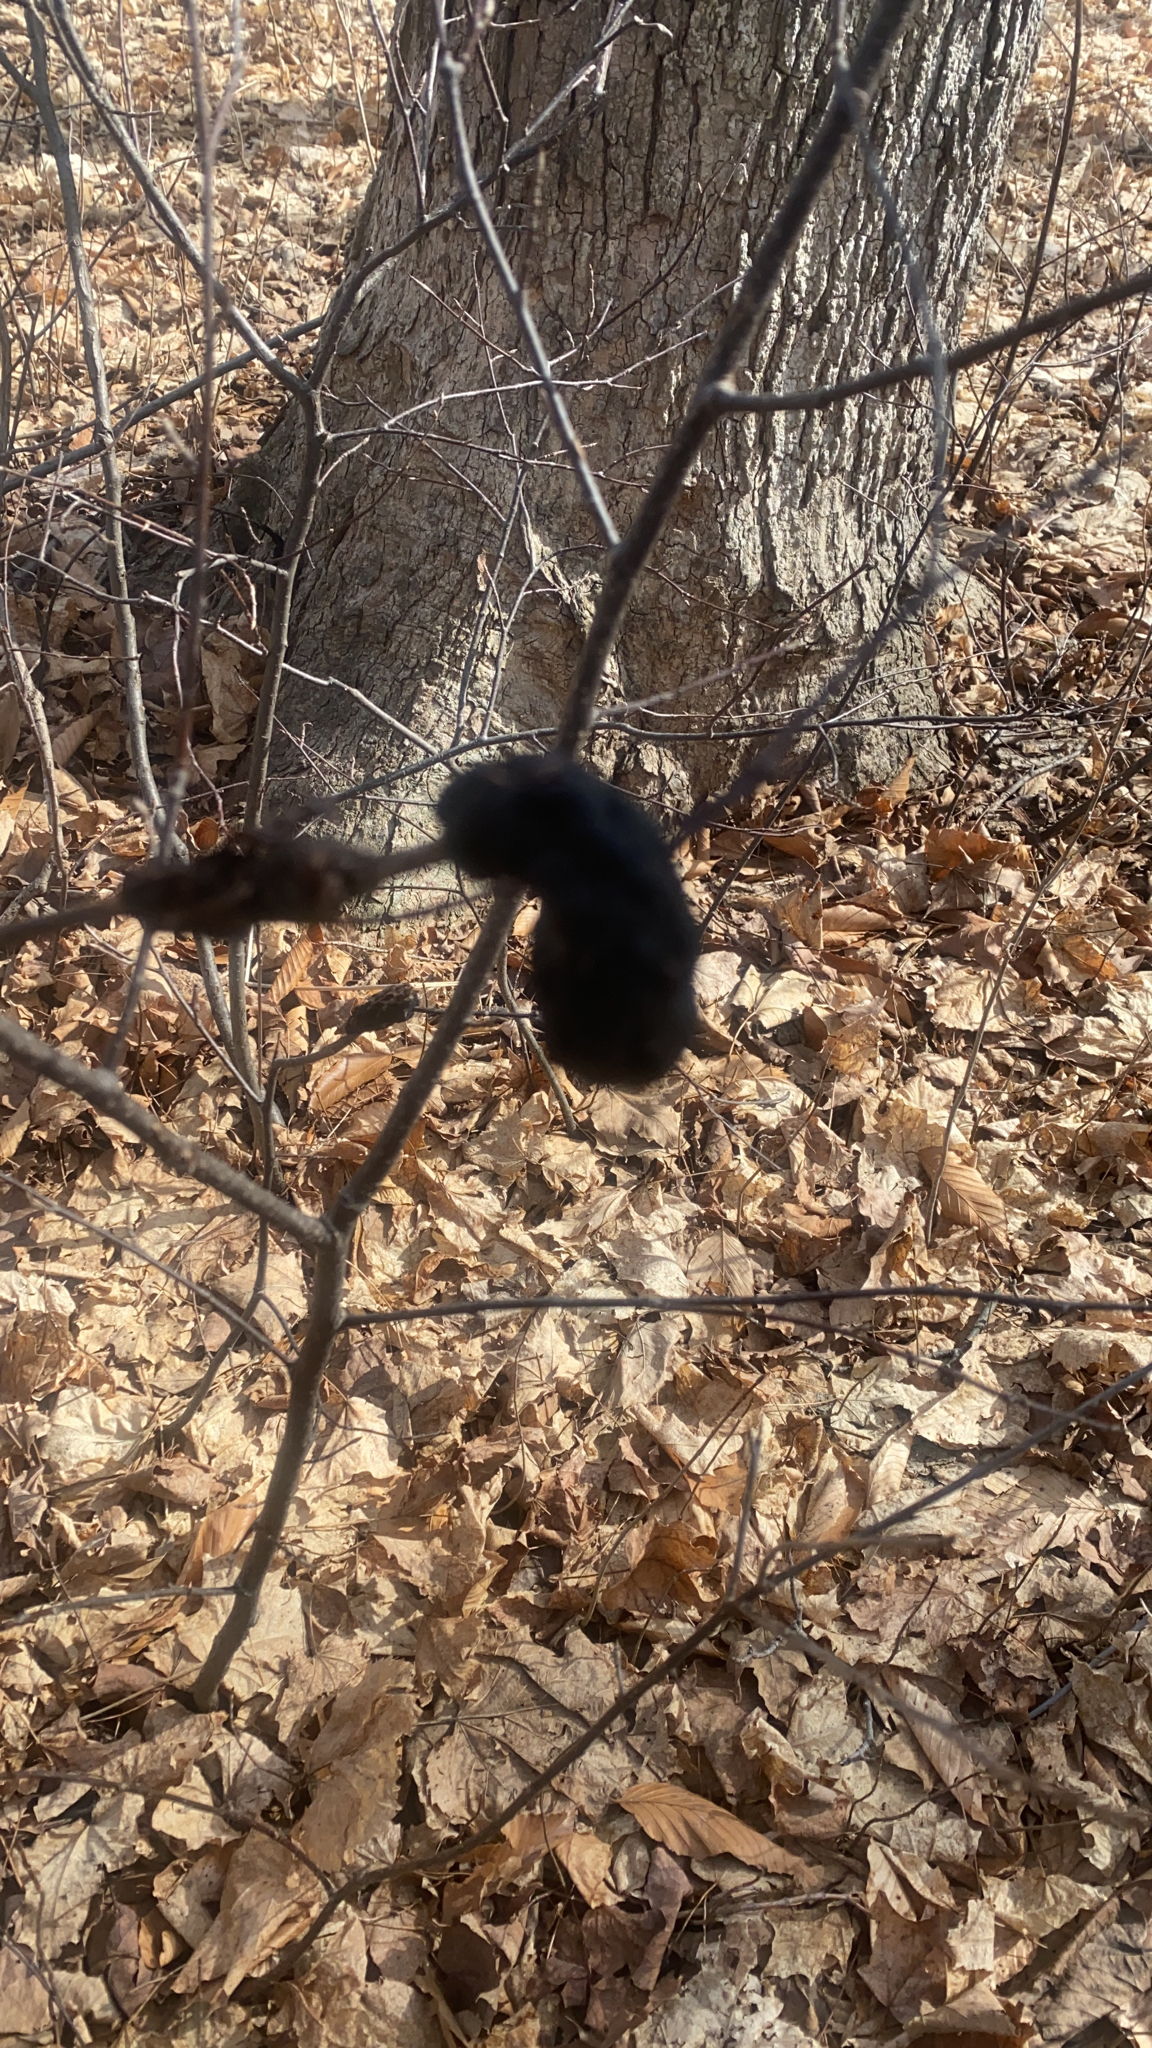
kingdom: Fungi
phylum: Ascomycota
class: Dothideomycetes
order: Venturiales
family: Venturiaceae
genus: Apiosporina
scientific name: Apiosporina morbosa
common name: Black knot
